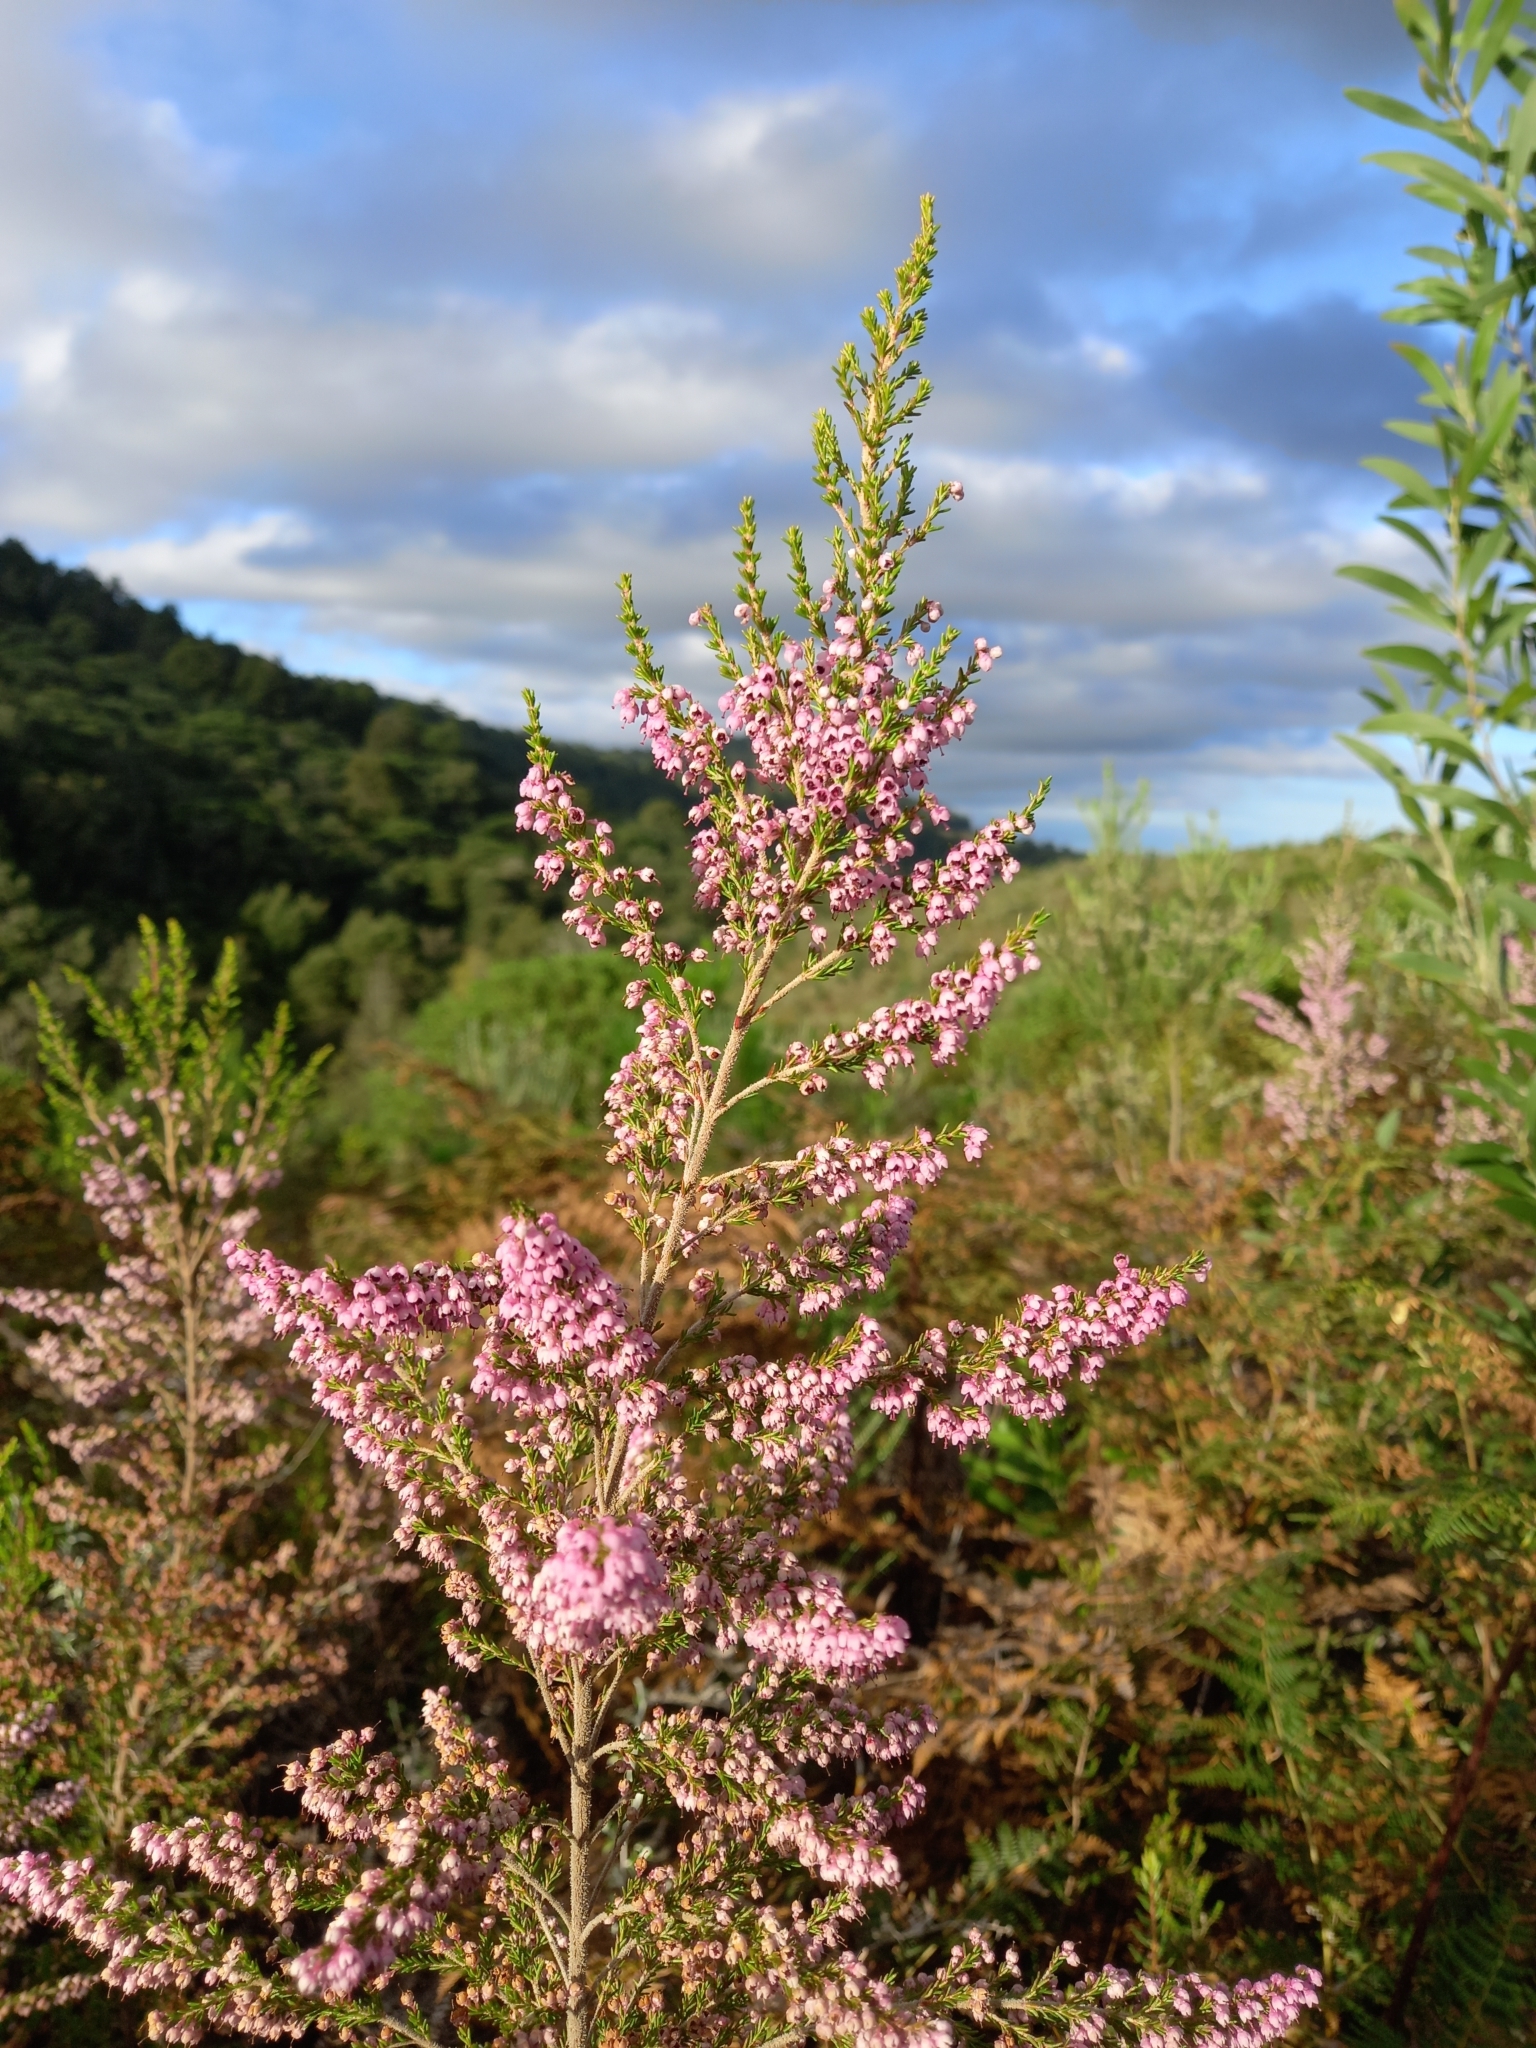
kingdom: Plantae
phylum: Tracheophyta
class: Magnoliopsida
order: Ericales
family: Ericaceae
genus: Erica
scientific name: Erica sparsa
